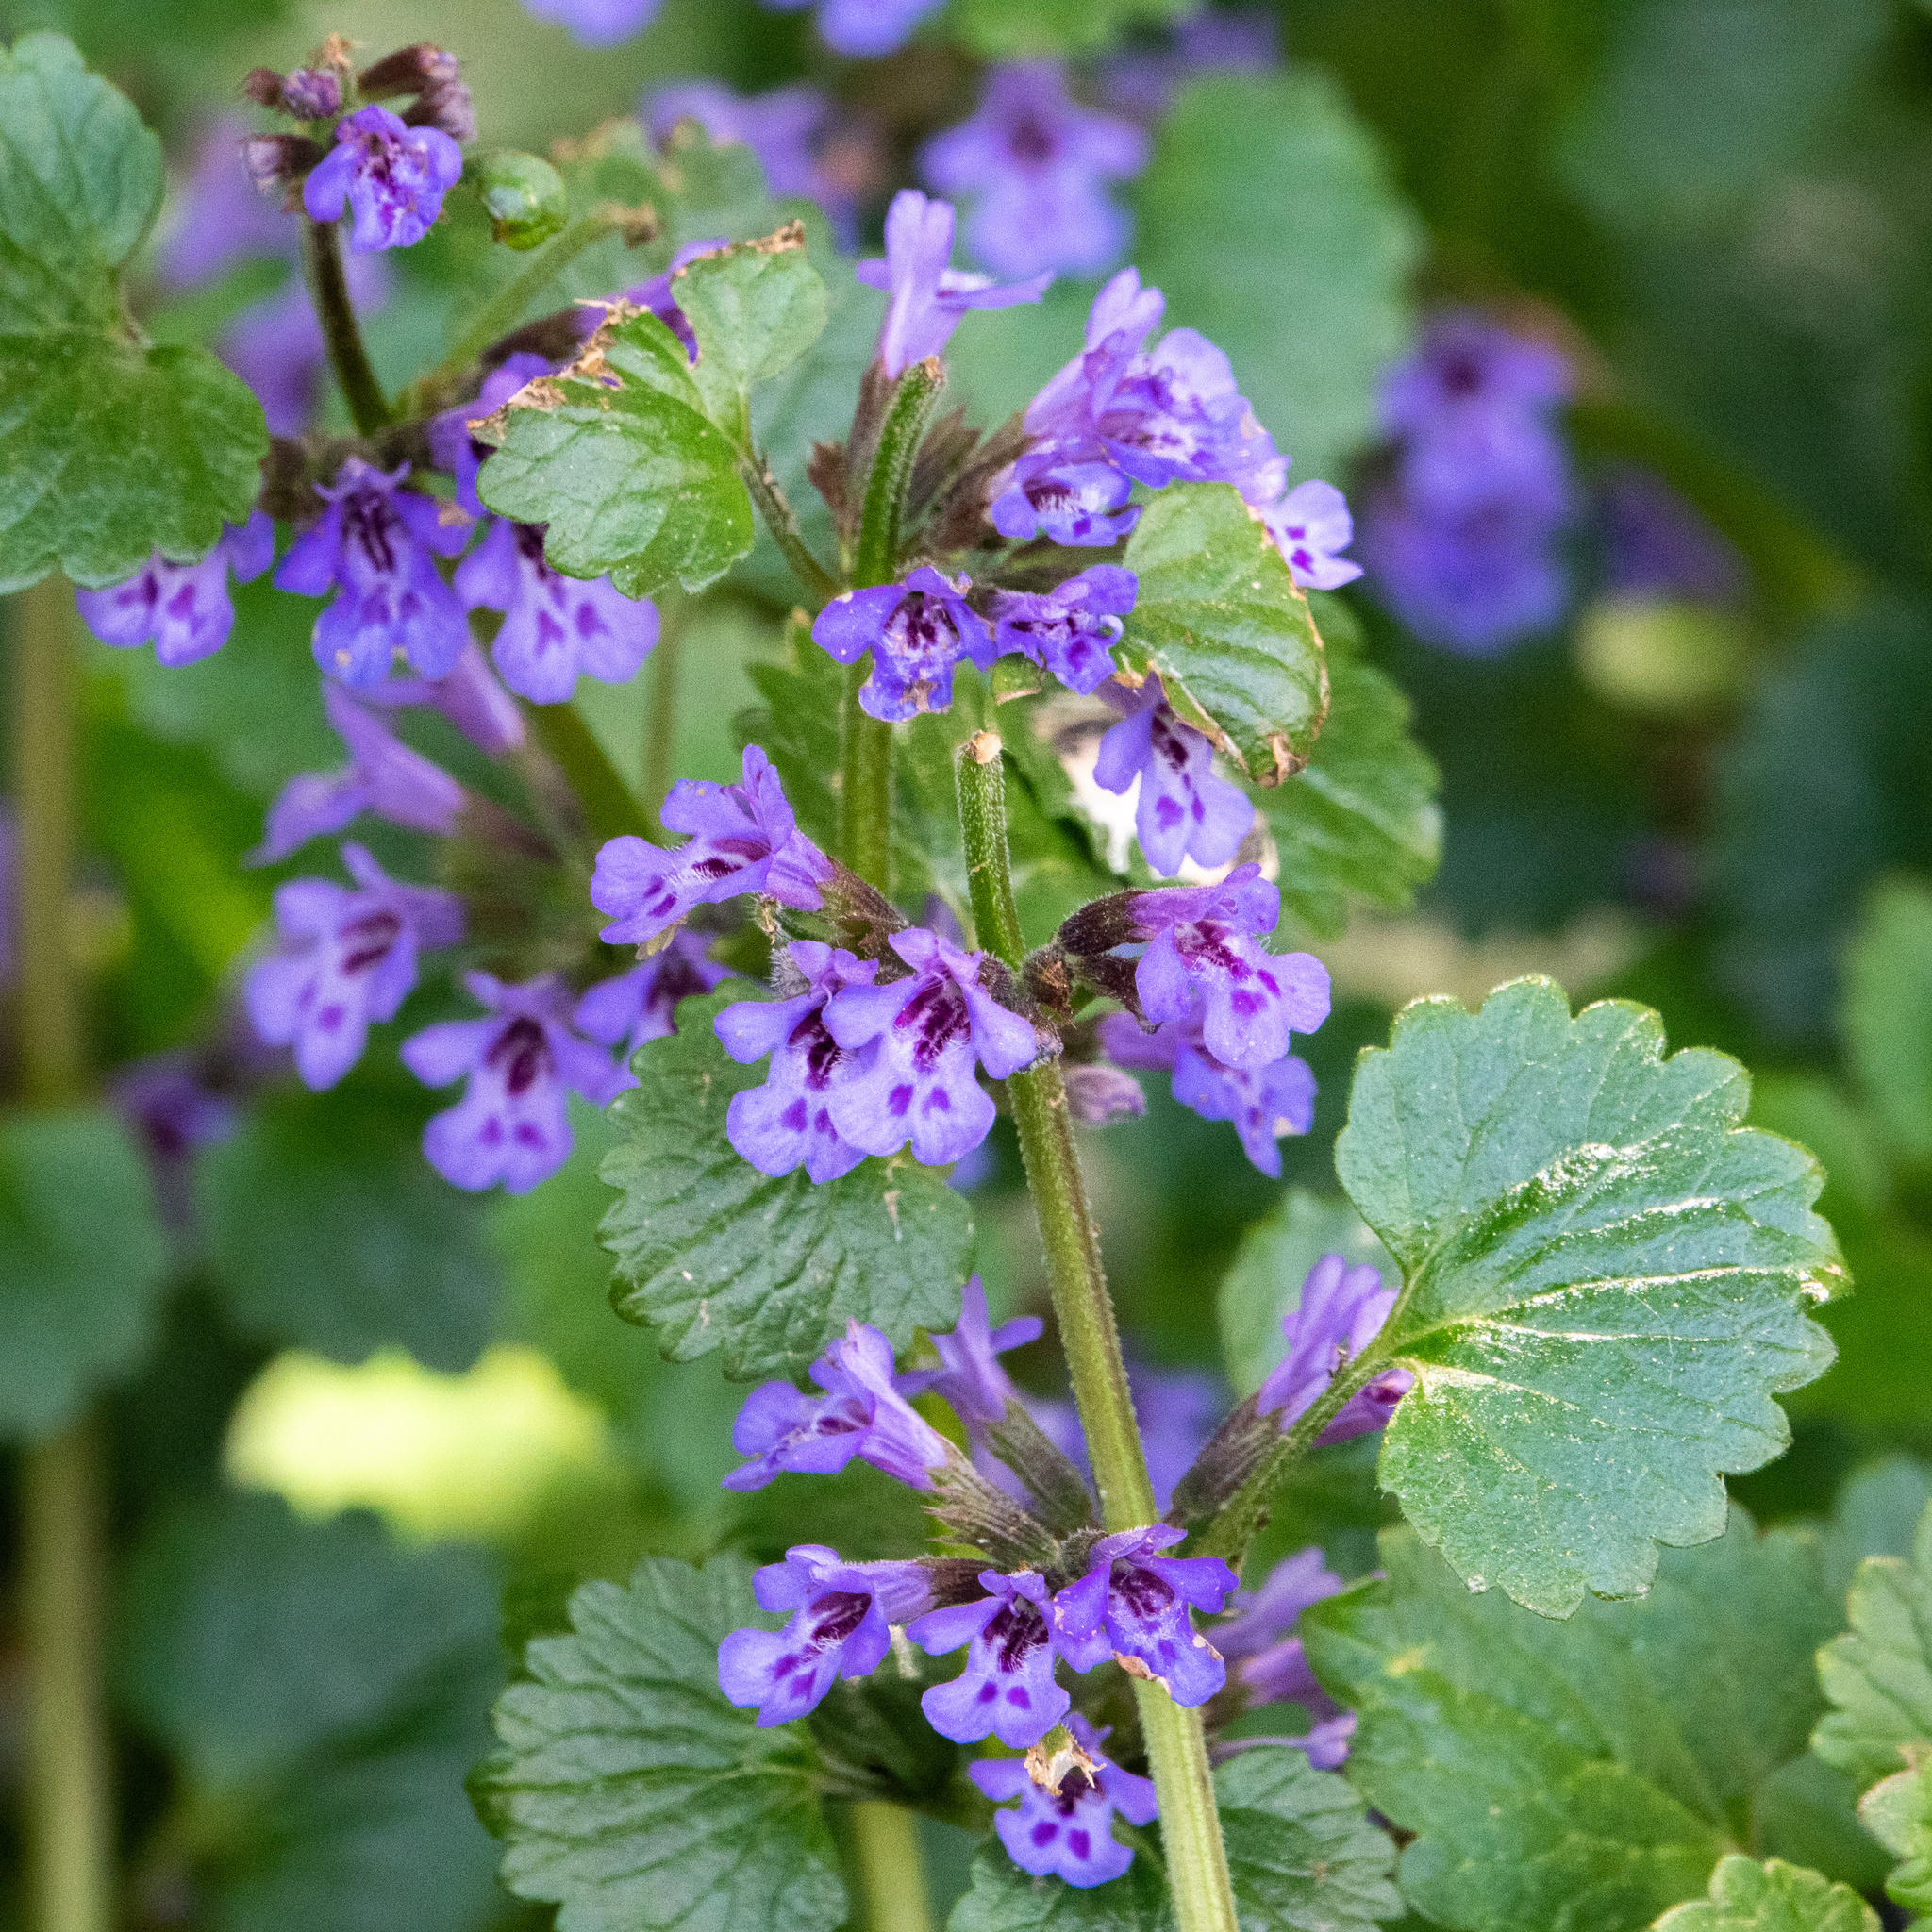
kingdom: Plantae
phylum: Tracheophyta
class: Magnoliopsida
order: Lamiales
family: Lamiaceae
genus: Glechoma
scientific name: Glechoma hederacea
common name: Ground ivy
